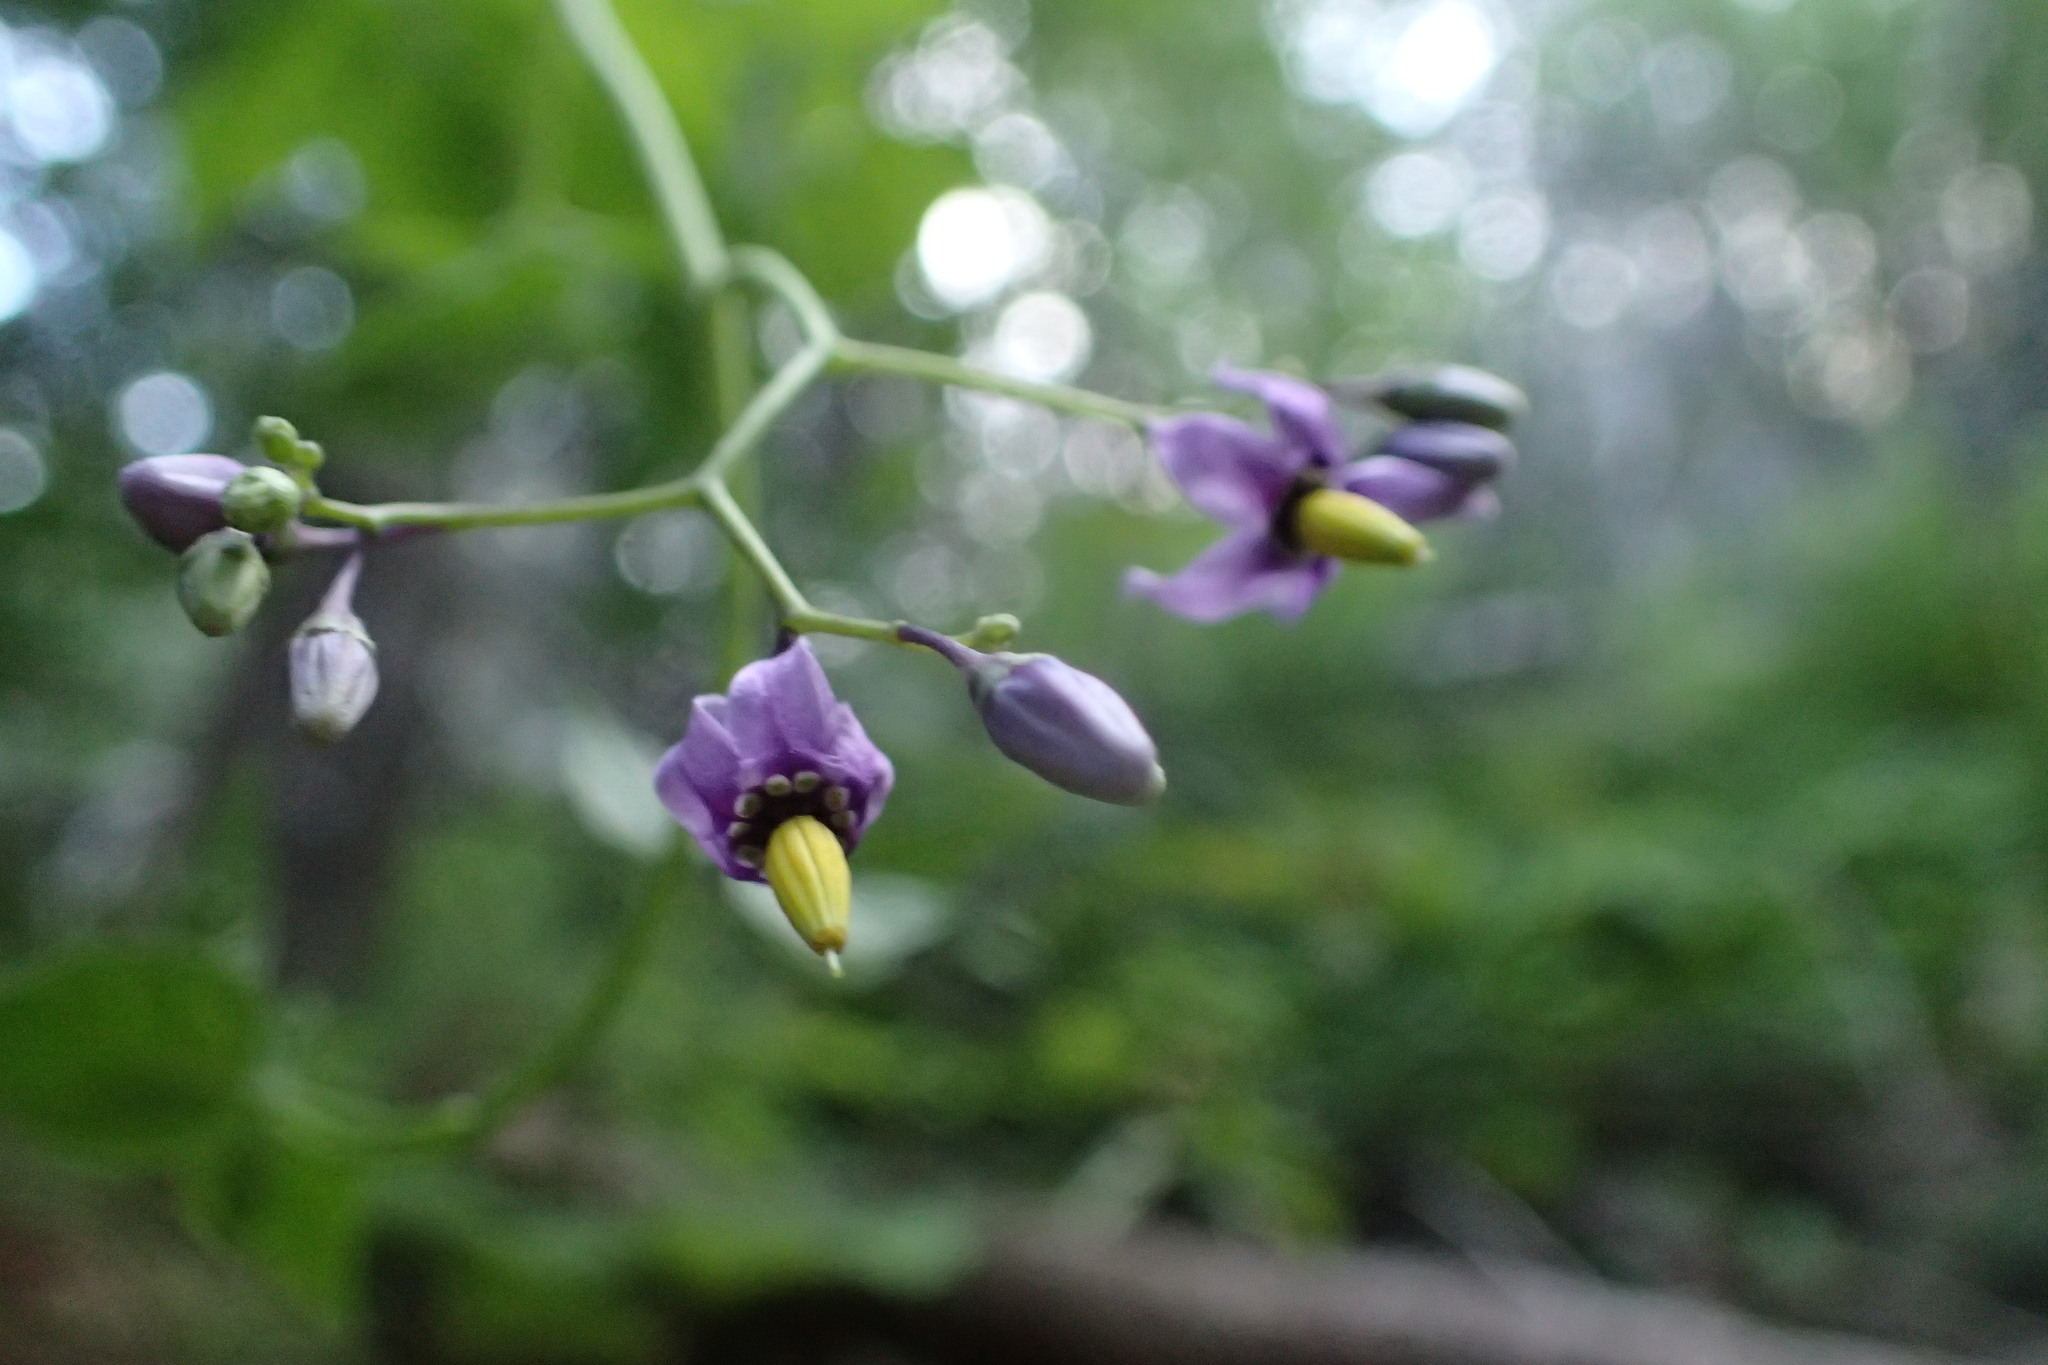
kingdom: Plantae
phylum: Tracheophyta
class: Magnoliopsida
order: Solanales
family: Solanaceae
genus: Solanum
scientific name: Solanum dulcamara
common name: Climbing nightshade
